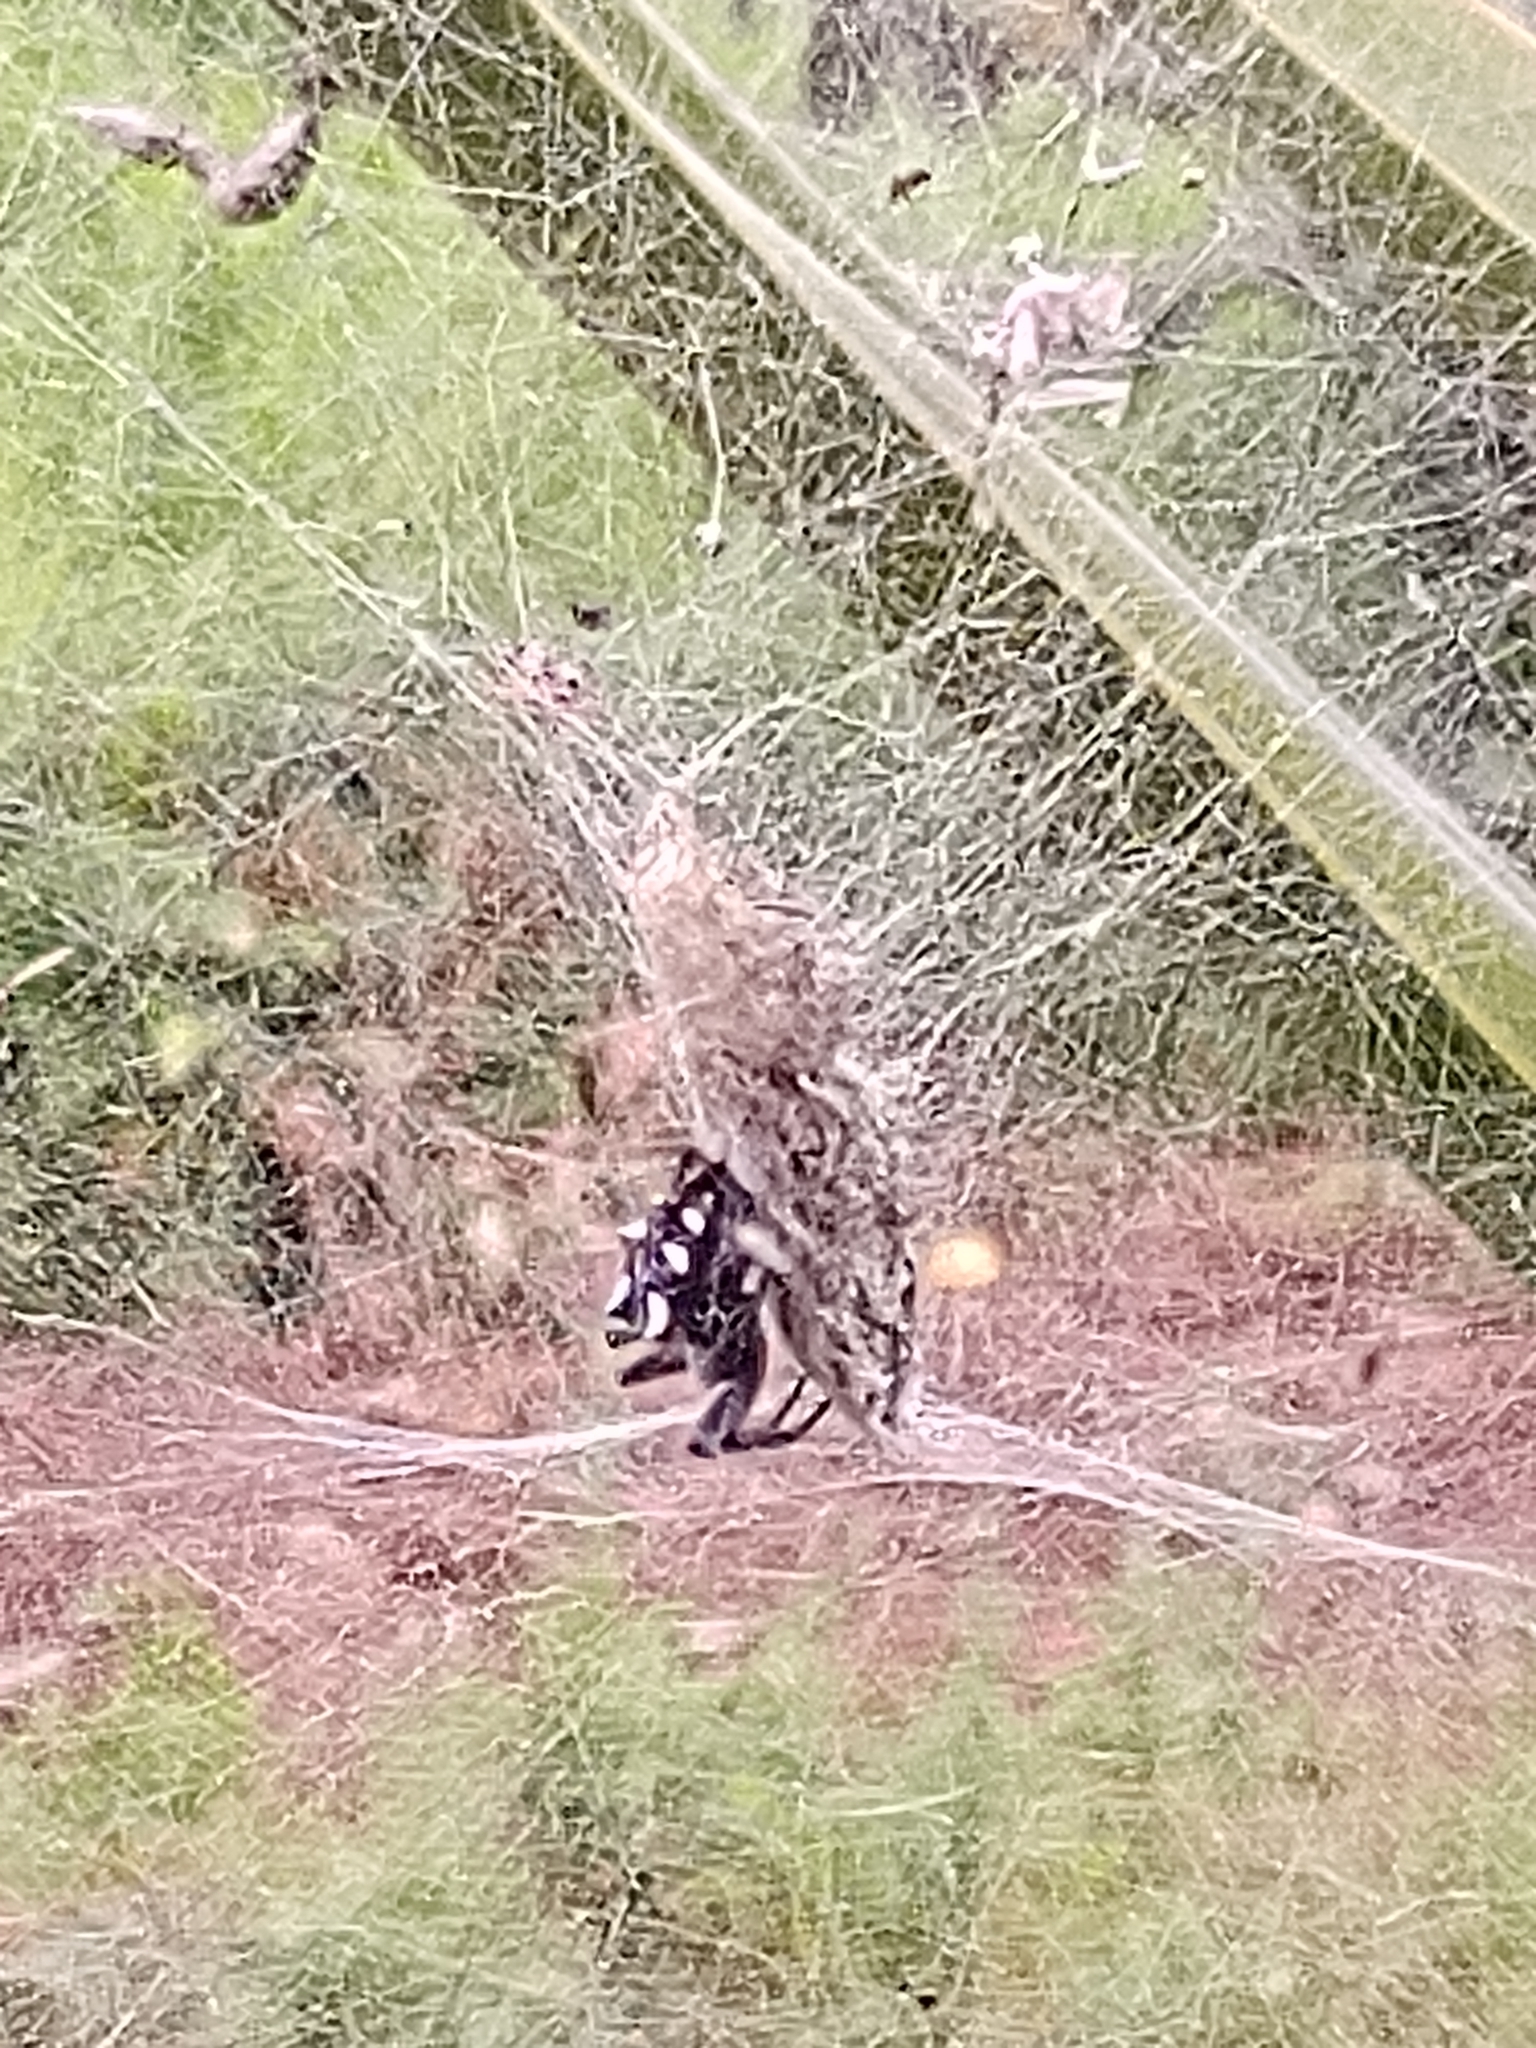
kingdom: Animalia
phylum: Arthropoda
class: Arachnida
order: Araneae
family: Araneidae
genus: Cyrtophora
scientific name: Cyrtophora citricola
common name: Orb weavers
